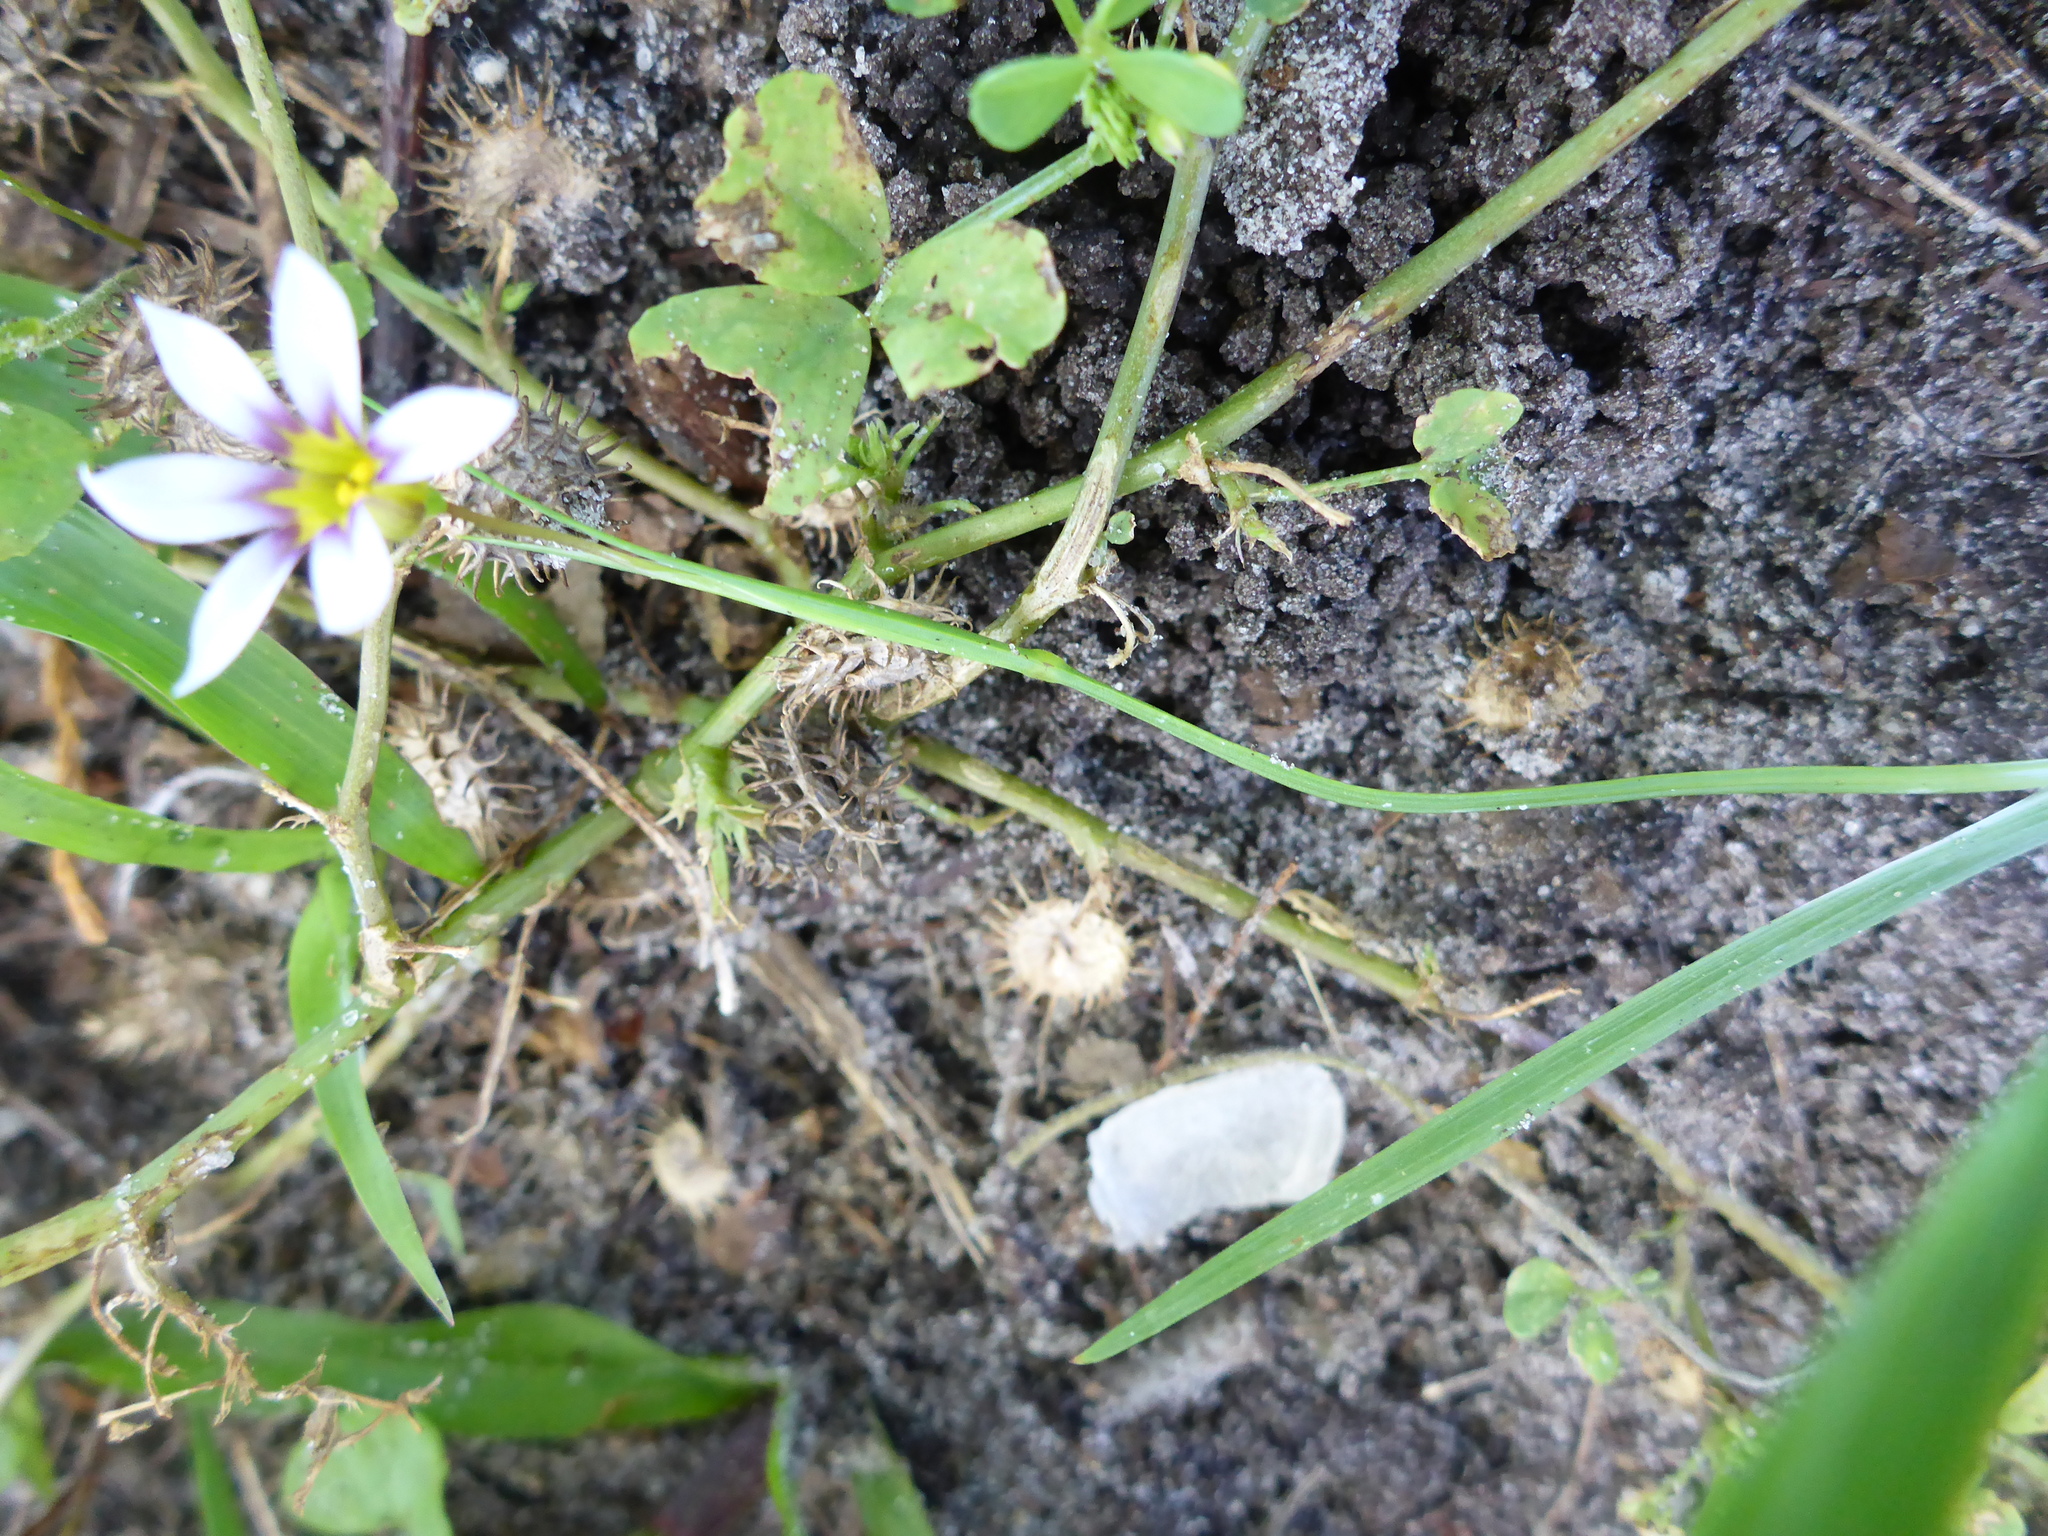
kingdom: Plantae
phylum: Tracheophyta
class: Liliopsida
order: Asparagales
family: Iridaceae
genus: Sisyrinchium
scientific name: Sisyrinchium micranthum
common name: Bermuda pigroot
